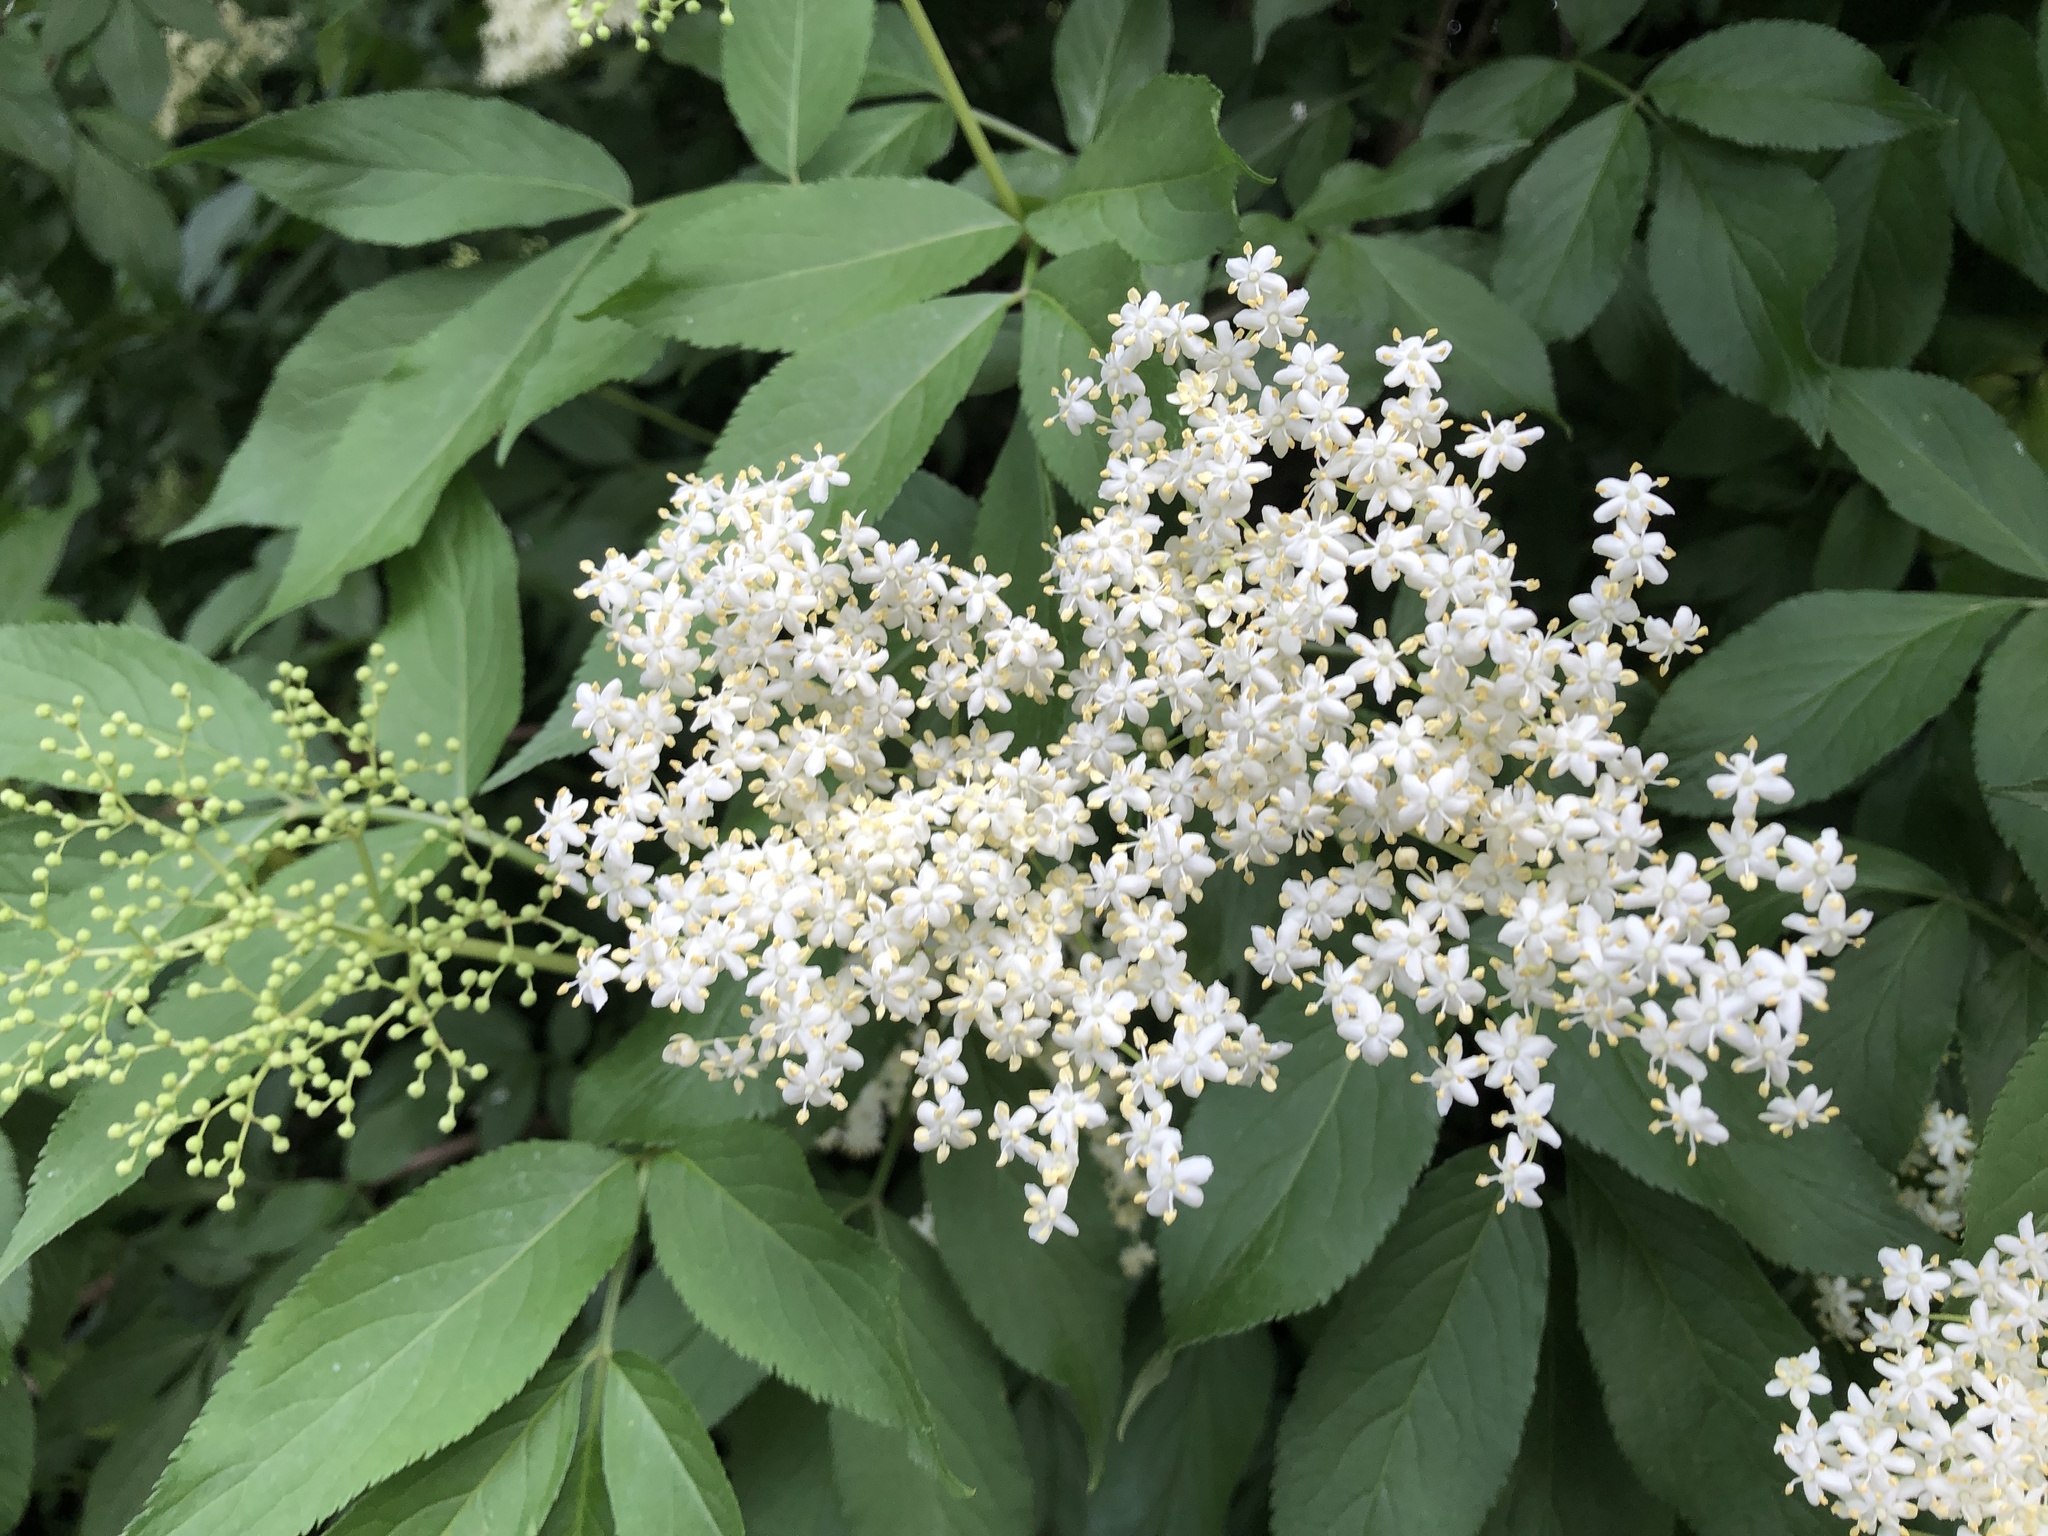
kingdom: Plantae
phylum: Tracheophyta
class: Magnoliopsida
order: Dipsacales
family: Viburnaceae
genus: Sambucus
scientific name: Sambucus nigra
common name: Elder
